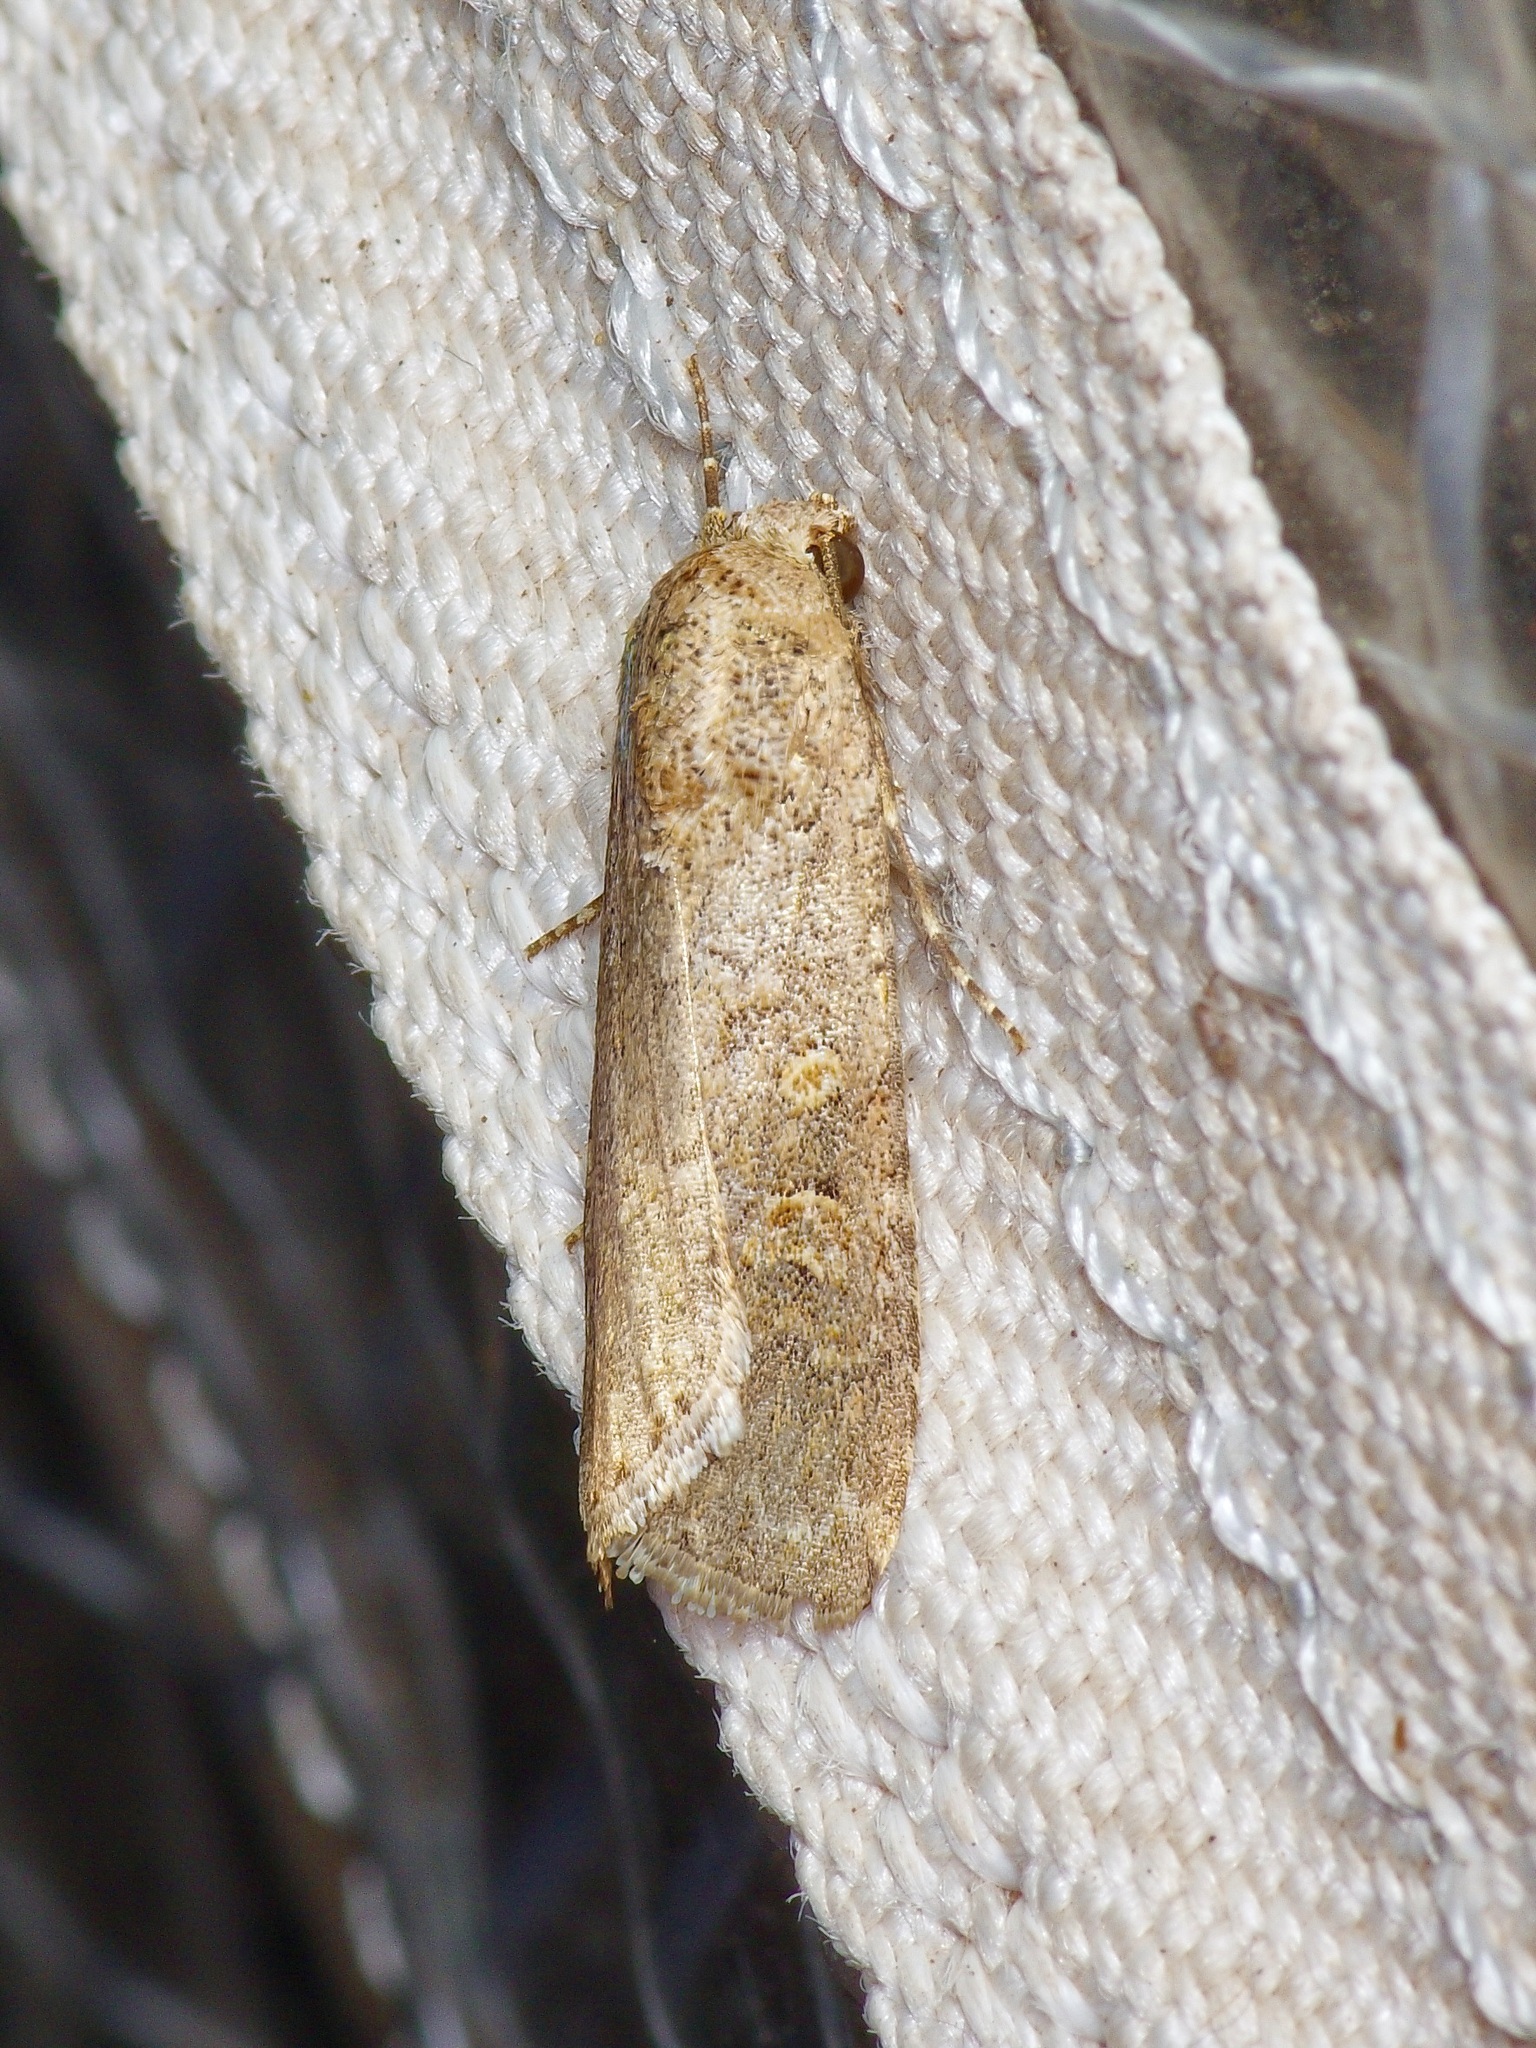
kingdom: Animalia
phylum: Arthropoda
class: Insecta
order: Lepidoptera
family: Noctuidae
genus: Spodoptera
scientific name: Spodoptera exigua
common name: Beet armyworm
